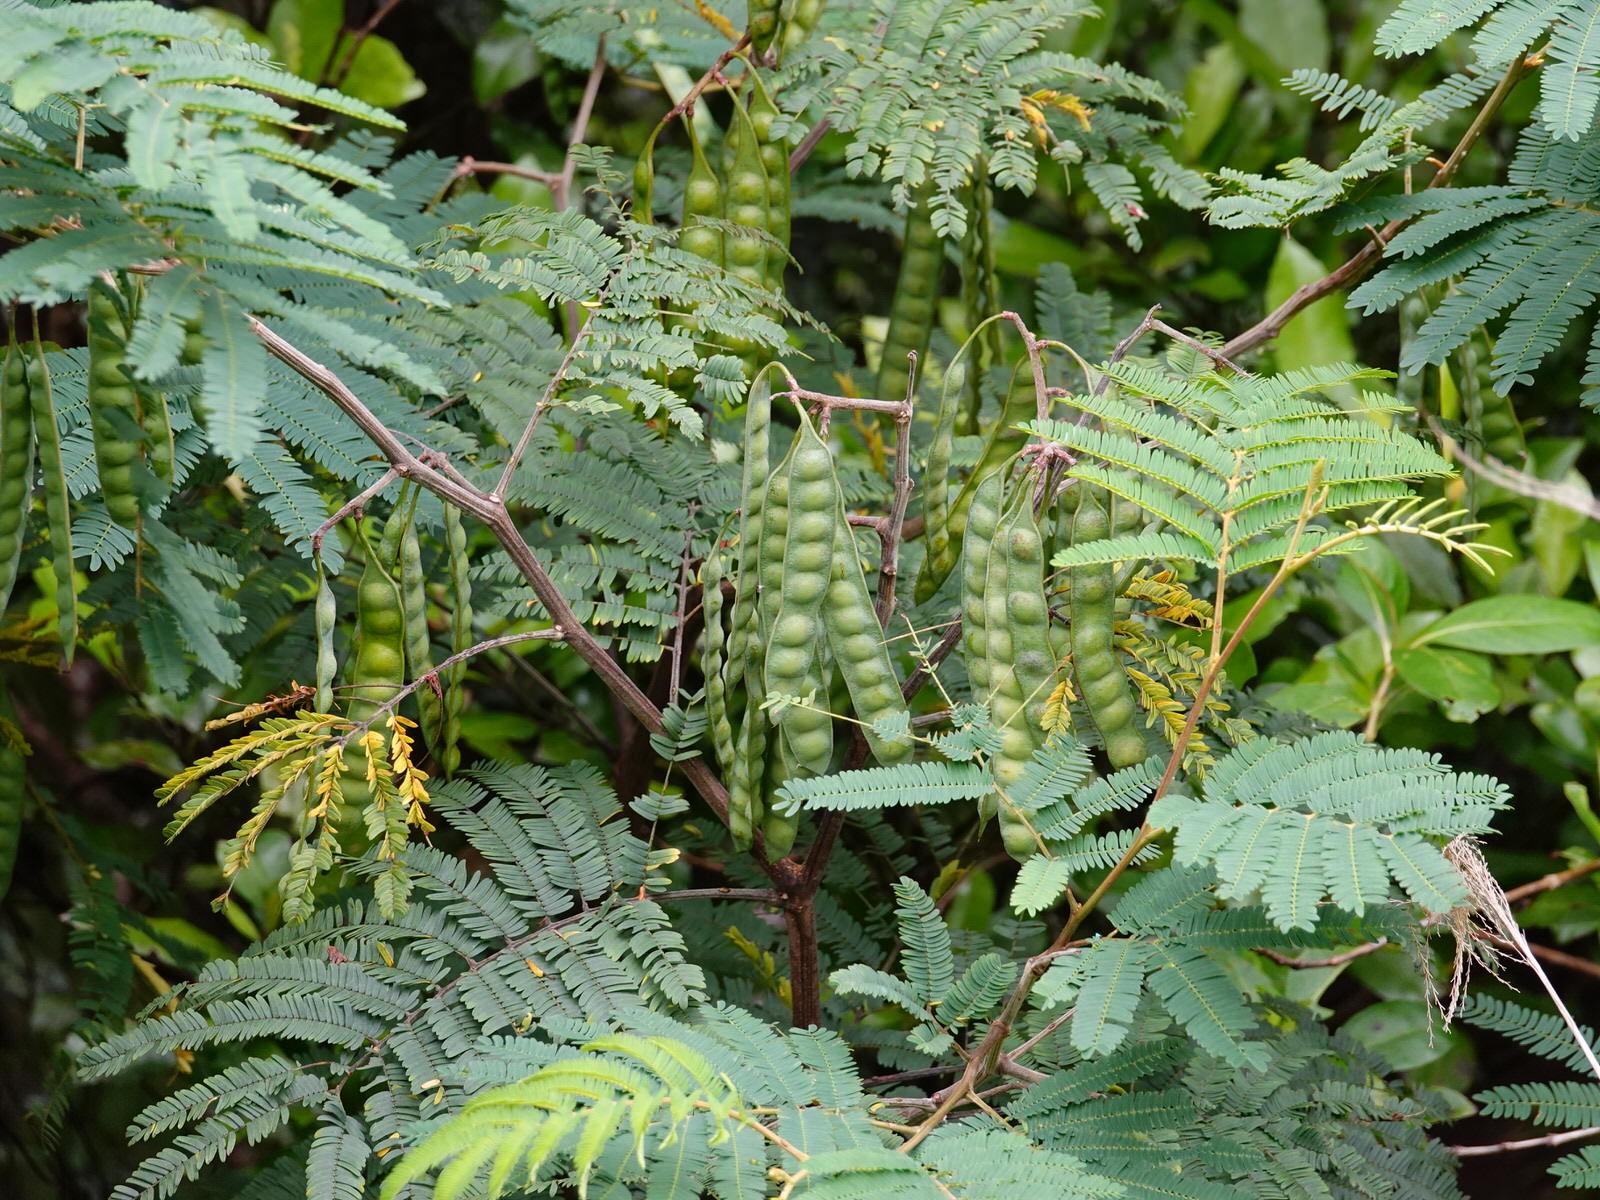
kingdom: Plantae
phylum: Tracheophyta
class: Magnoliopsida
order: Fabales
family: Fabaceae
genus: Paraserianthes
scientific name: Paraserianthes lophantha
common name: Plume albizia
